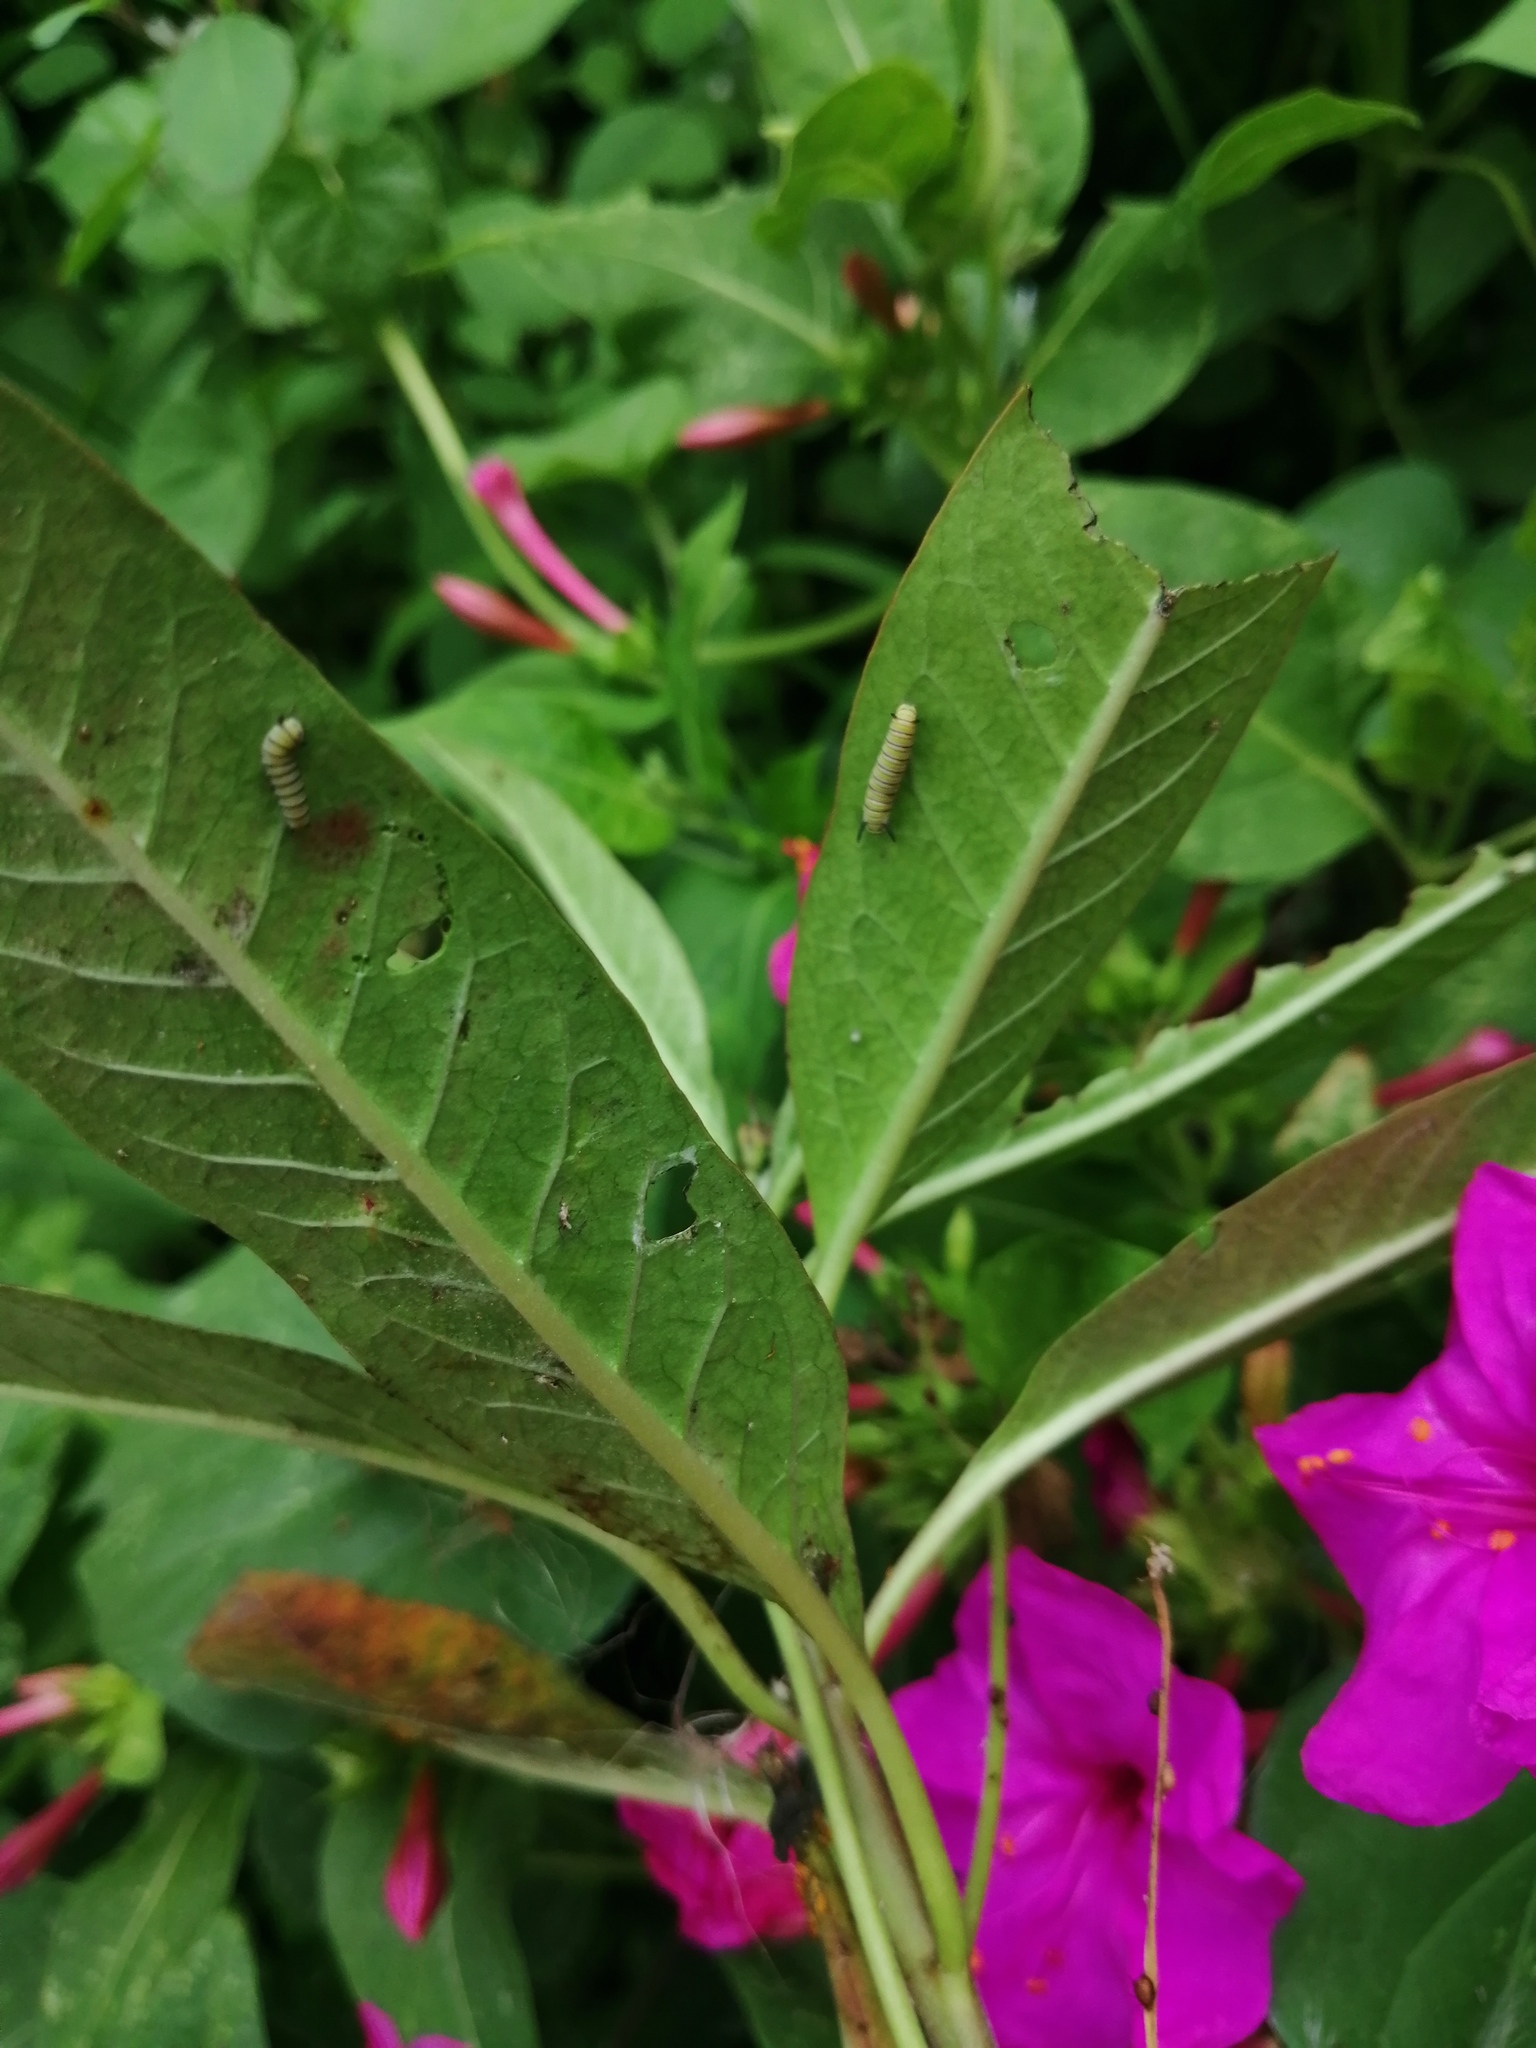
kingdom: Animalia
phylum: Arthropoda
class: Insecta
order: Lepidoptera
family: Nymphalidae
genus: Danaus
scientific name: Danaus plexippus
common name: Monarch
